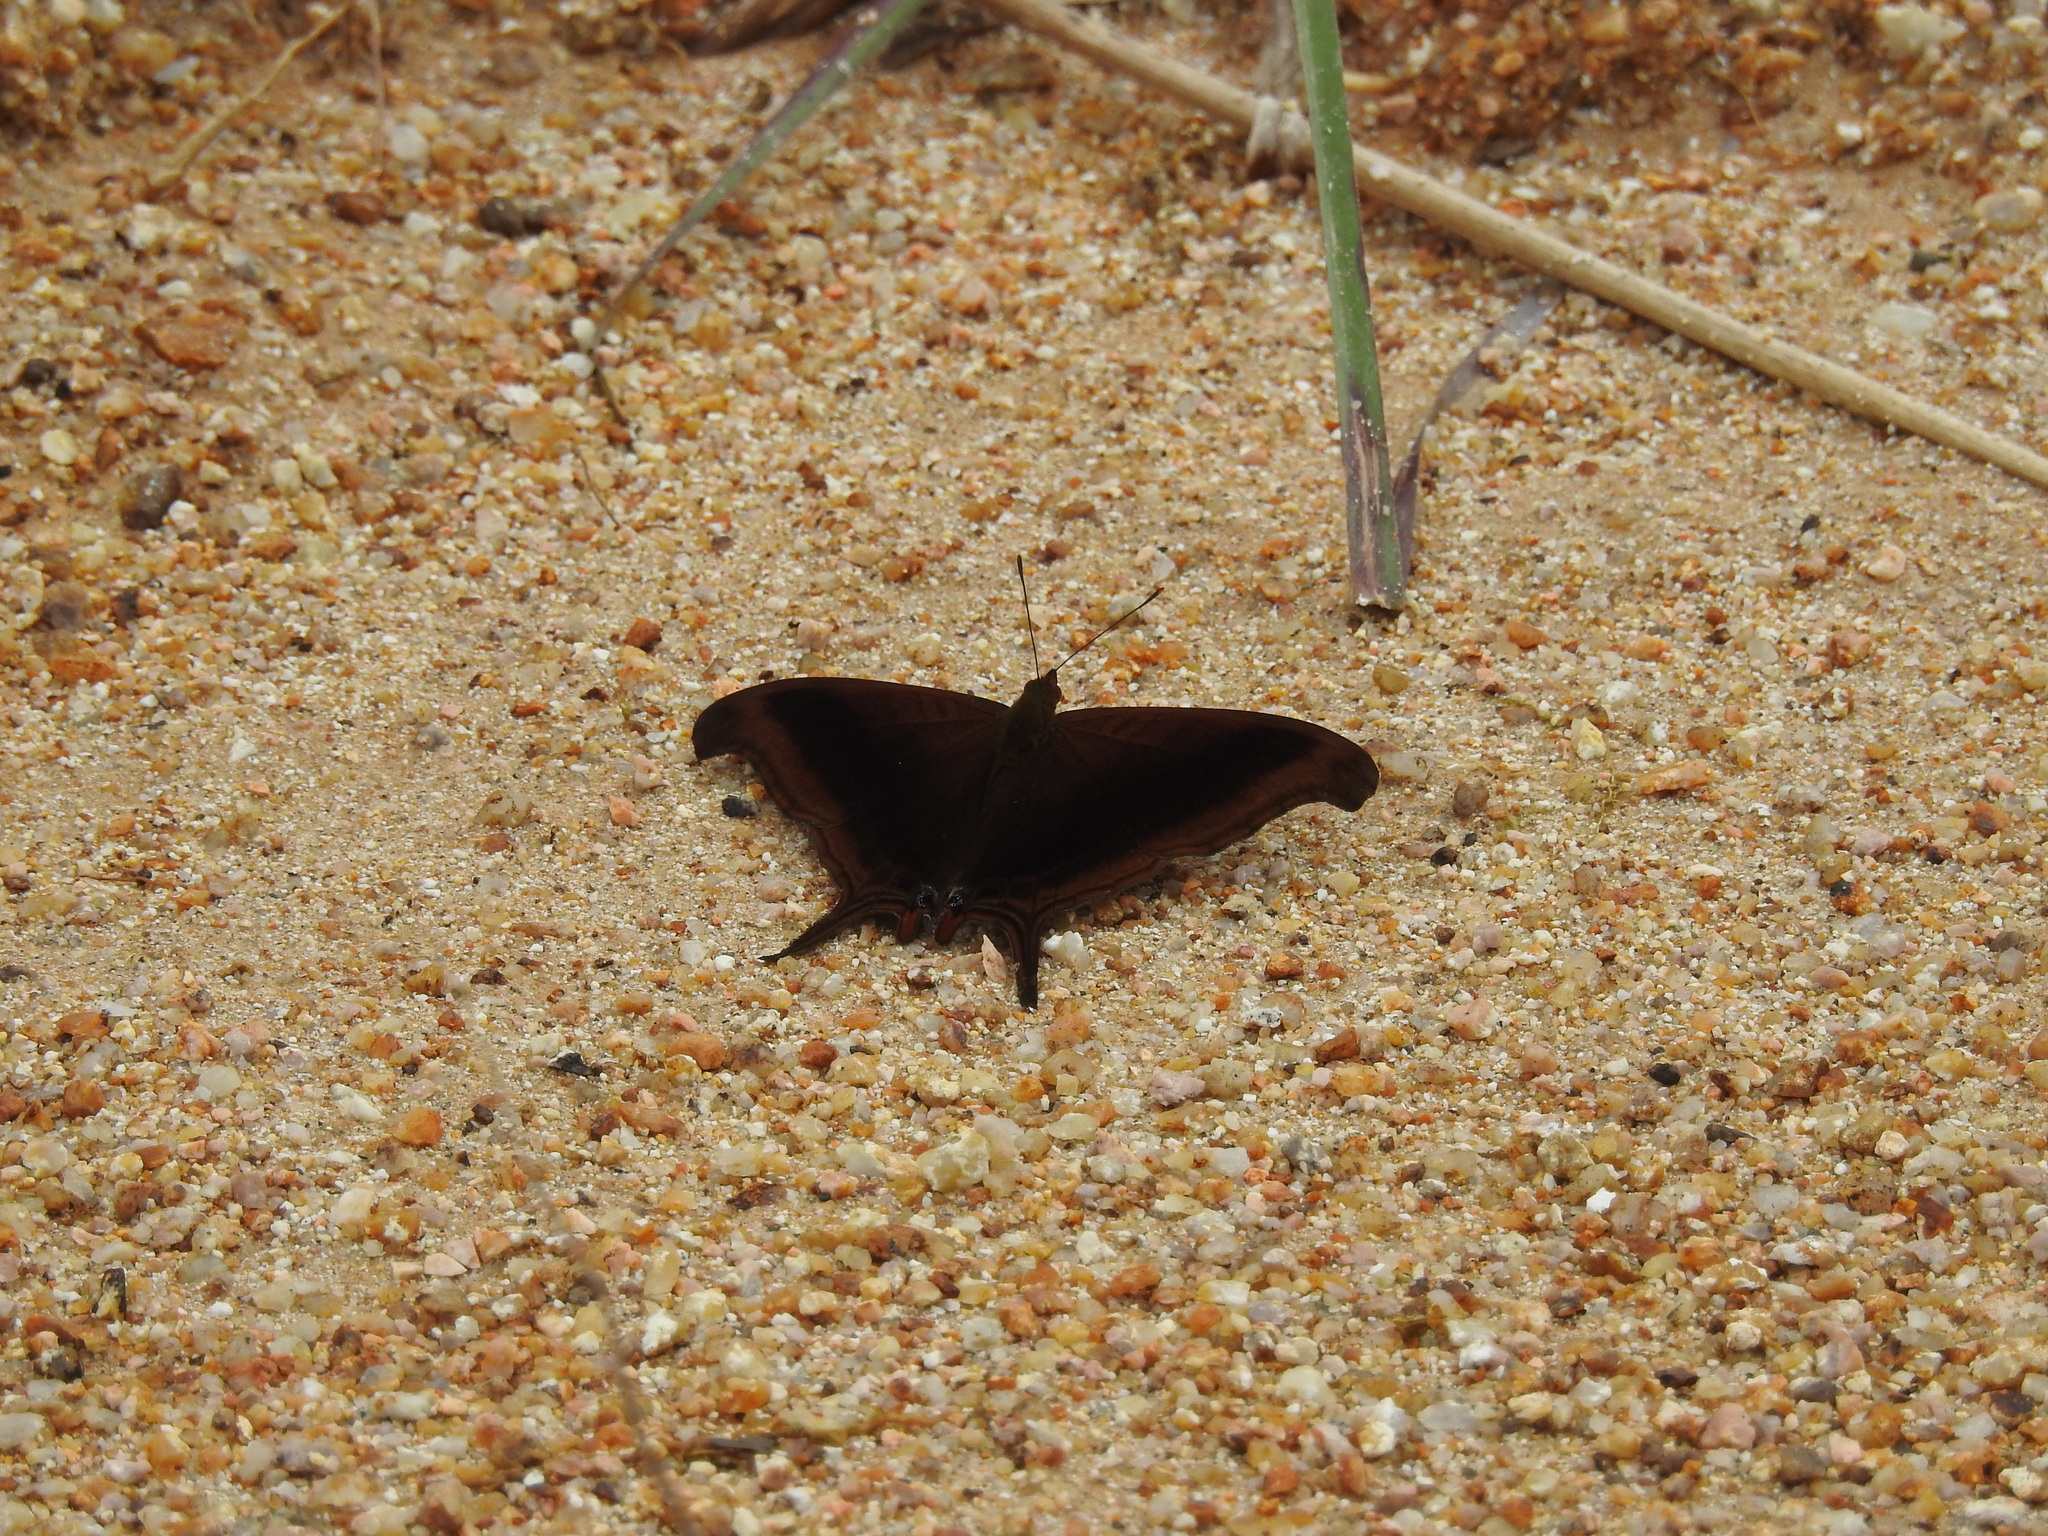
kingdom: Animalia
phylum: Arthropoda
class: Insecta
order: Lepidoptera
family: Nymphalidae
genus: Marpesia
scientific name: Marpesia zerynthia
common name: Waiter daggerwing
